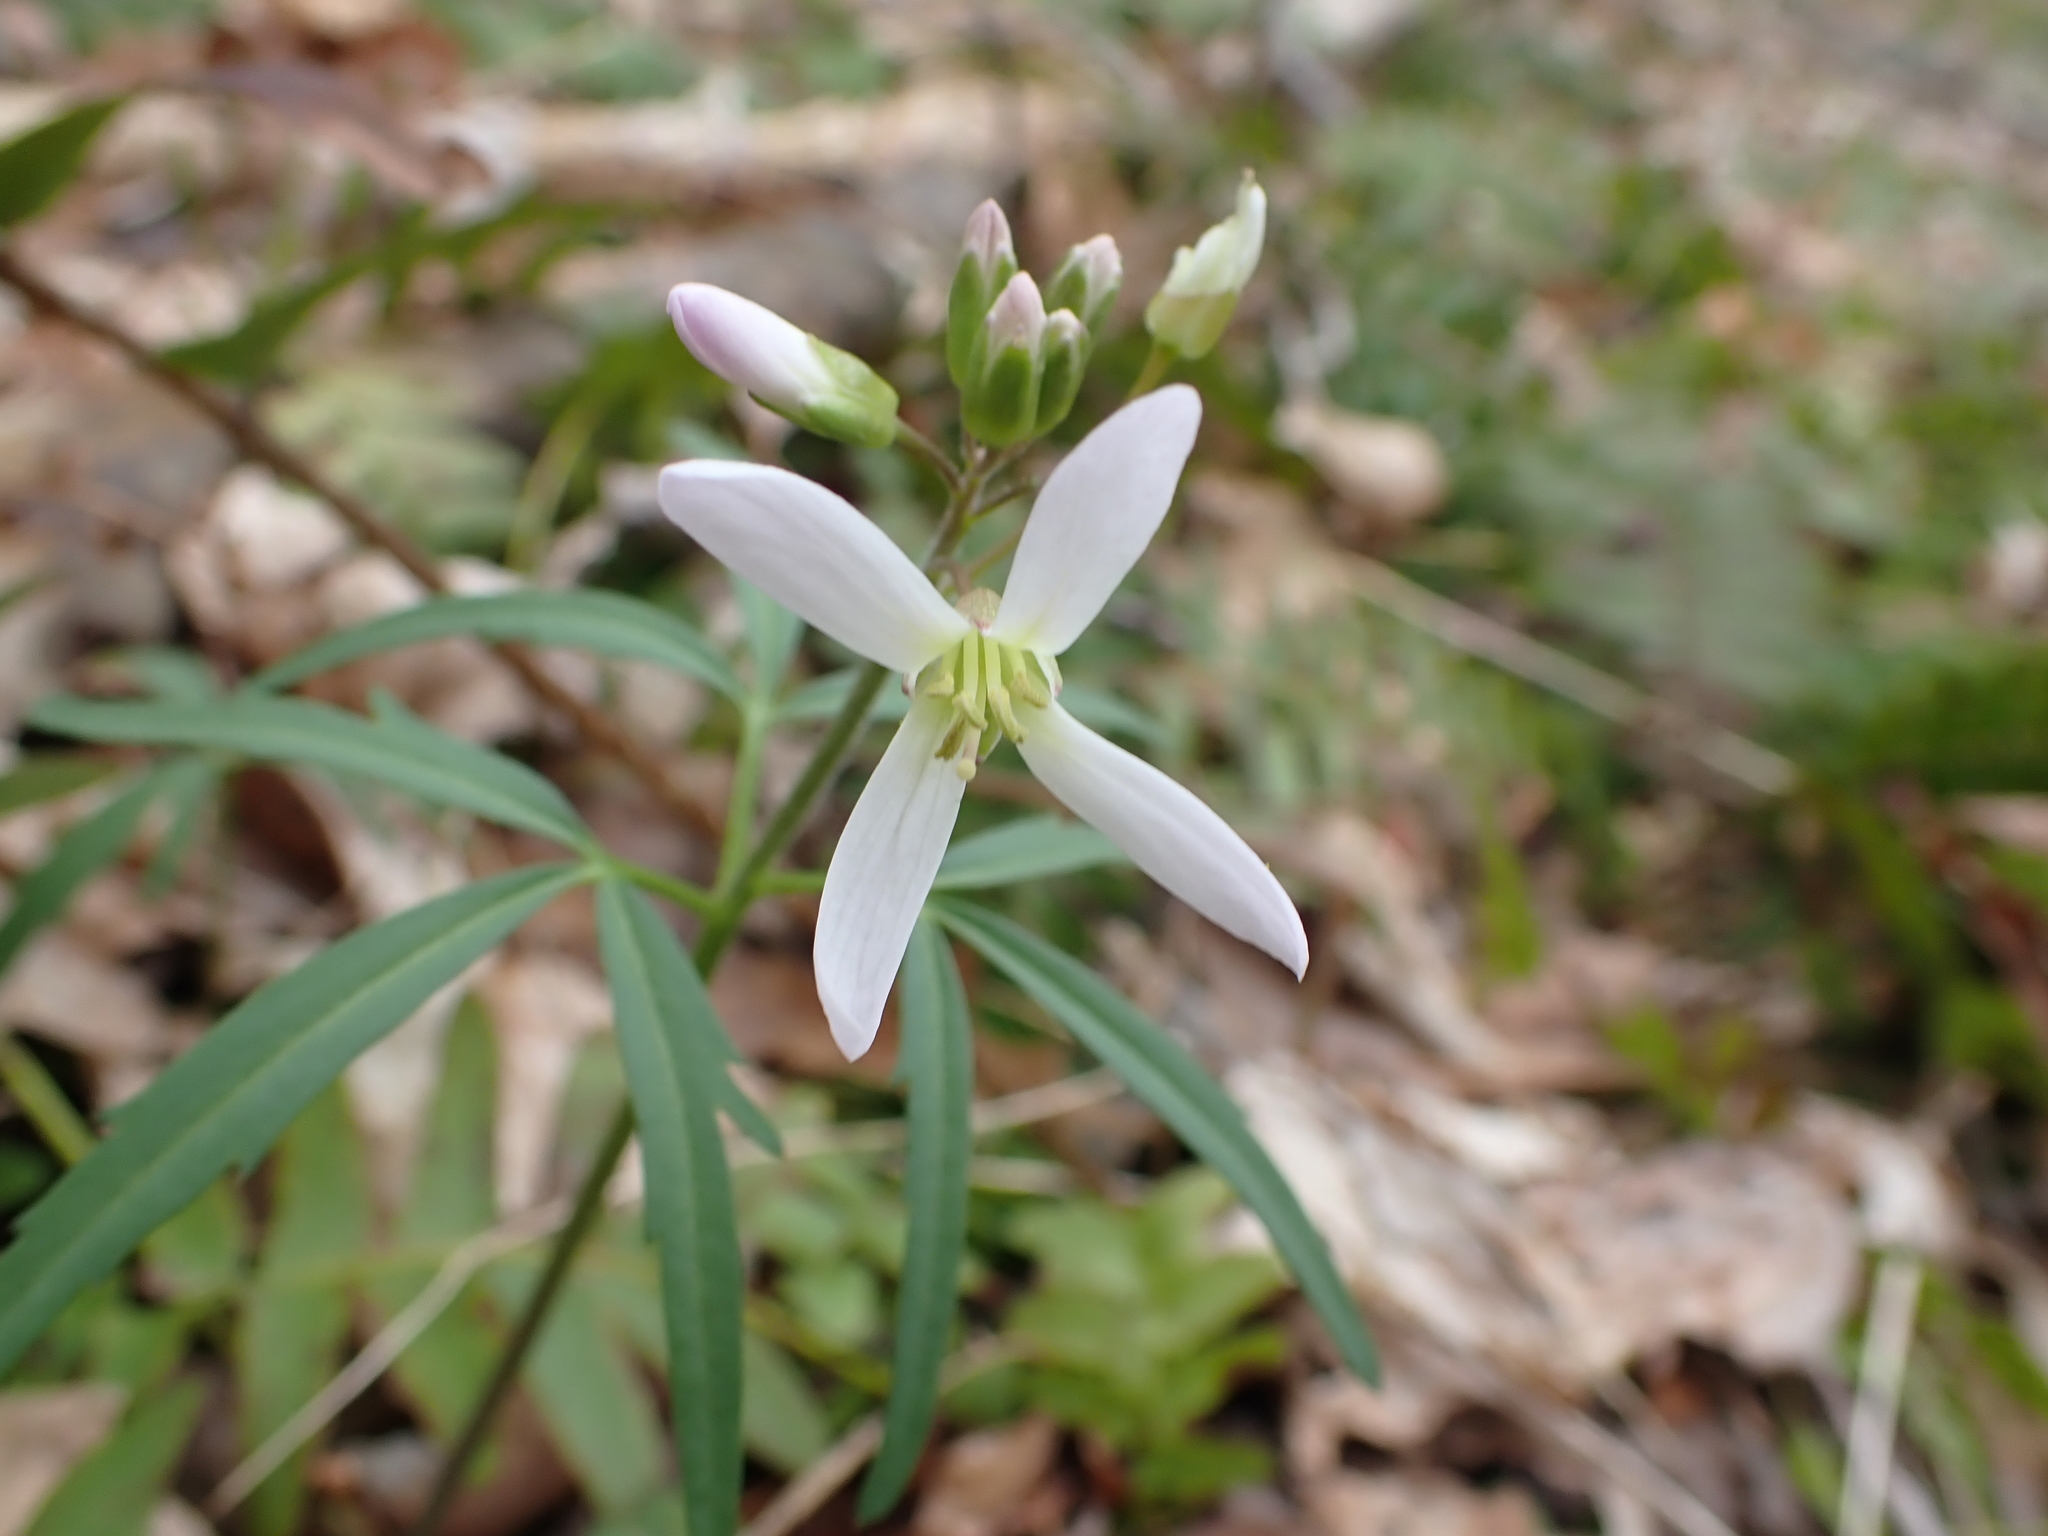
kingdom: Plantae
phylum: Tracheophyta
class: Magnoliopsida
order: Brassicales
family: Brassicaceae
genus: Cardamine
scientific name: Cardamine concatenata
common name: Cut-leaf toothcup
